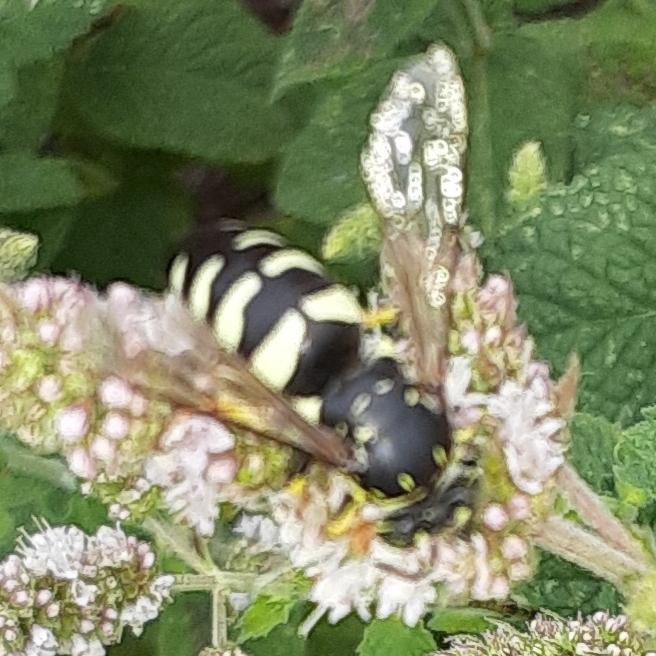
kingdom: Animalia
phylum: Arthropoda
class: Insecta
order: Hymenoptera
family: Crabronidae
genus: Bicyrtes
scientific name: Bicyrtes quadrifasciatus
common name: Four-banded stink bug hunter wasp
